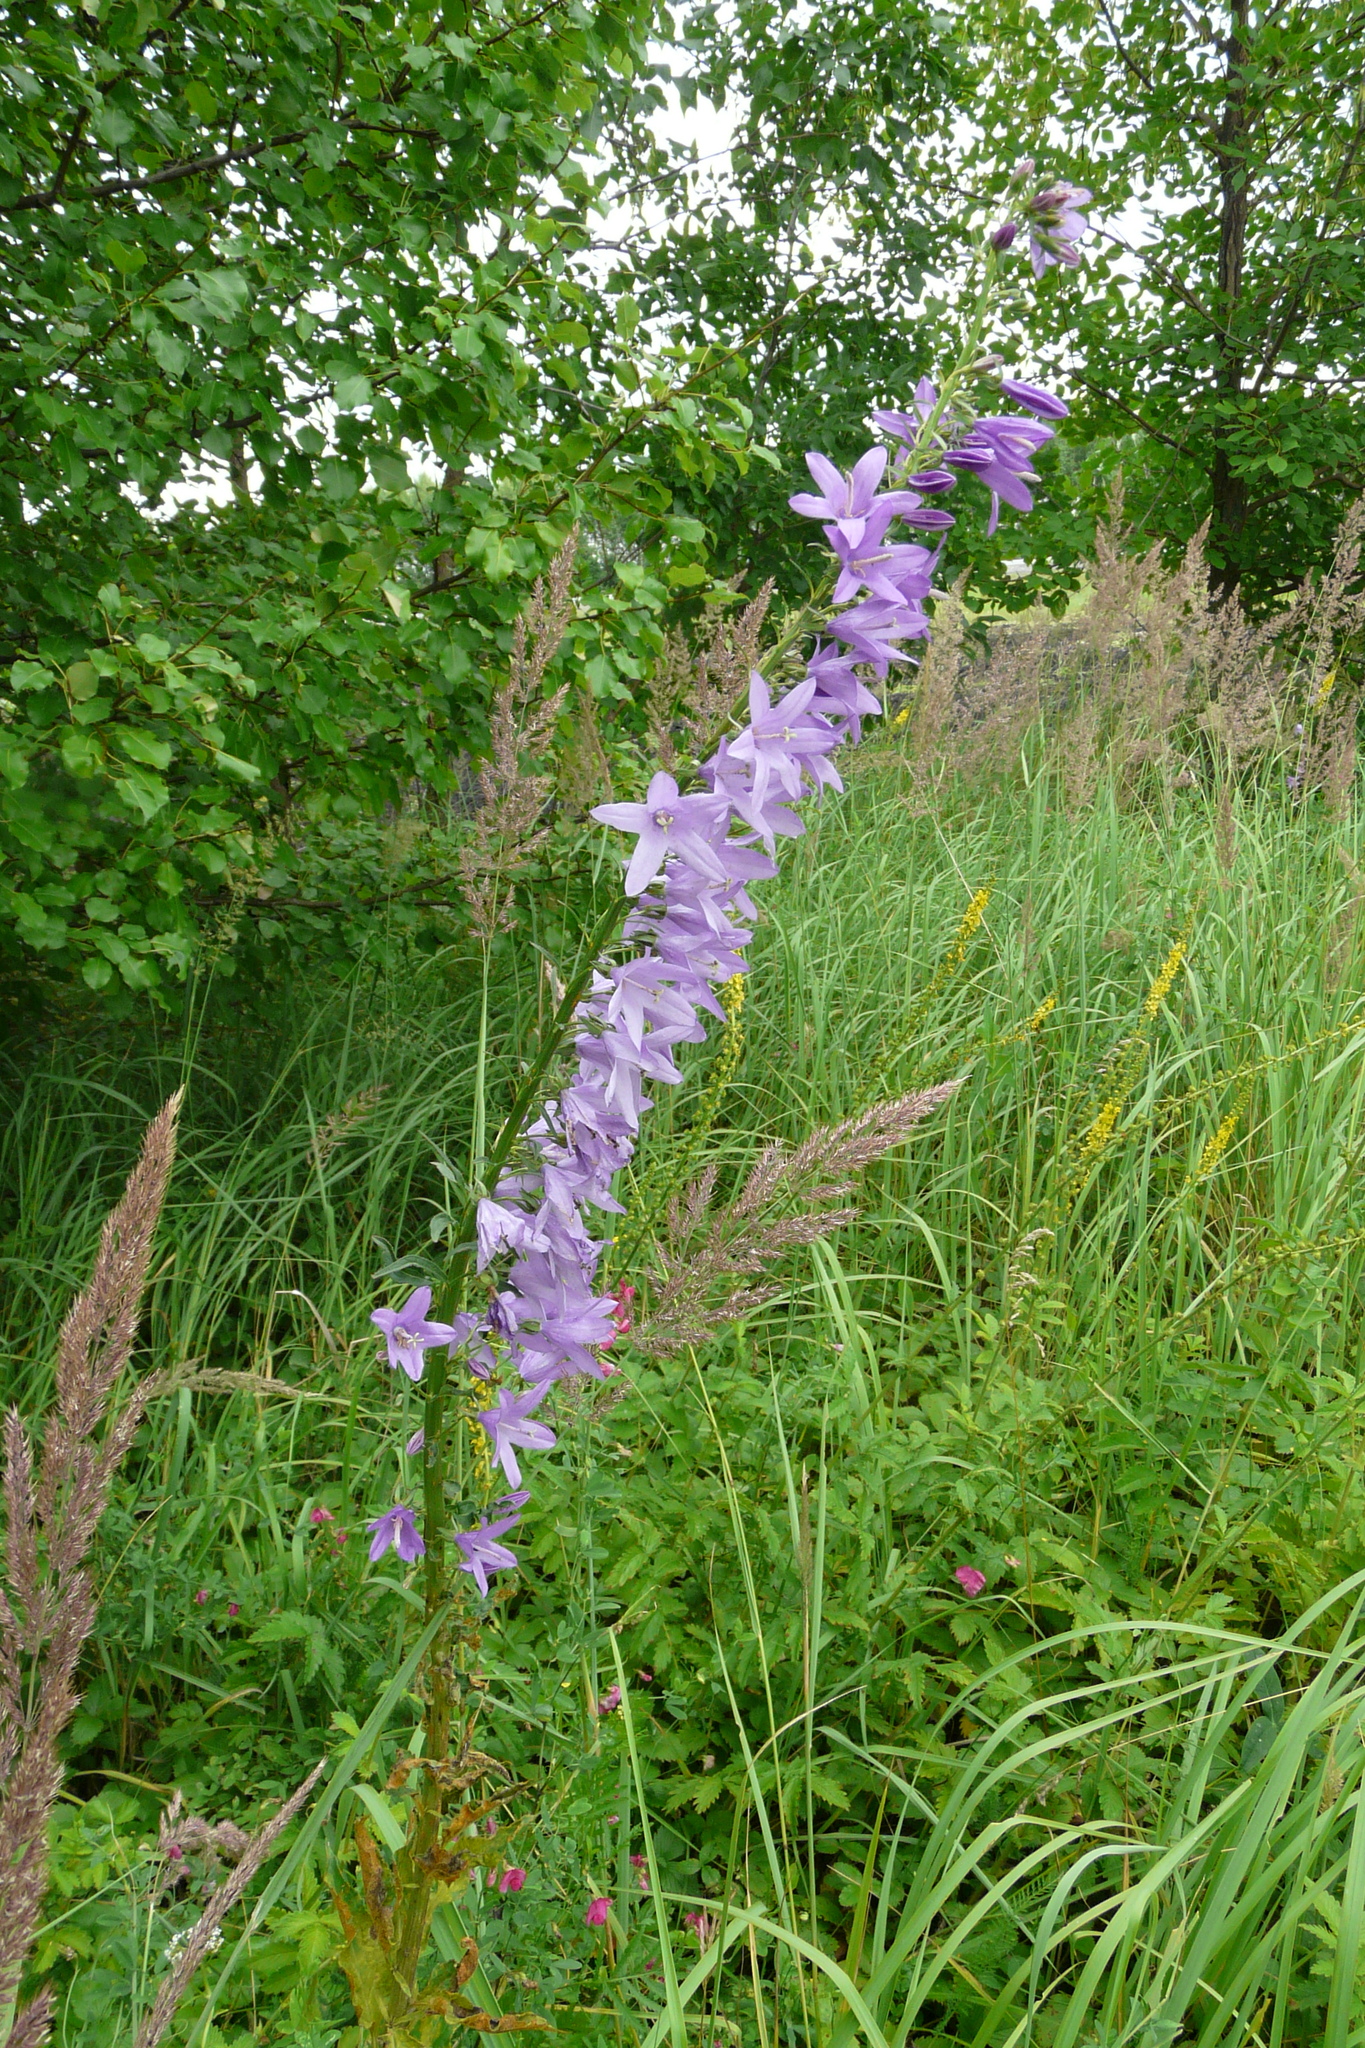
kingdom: Plantae
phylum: Tracheophyta
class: Magnoliopsida
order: Asterales
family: Campanulaceae
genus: Campanula
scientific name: Campanula rapunculoides
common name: Creeping bellflower
